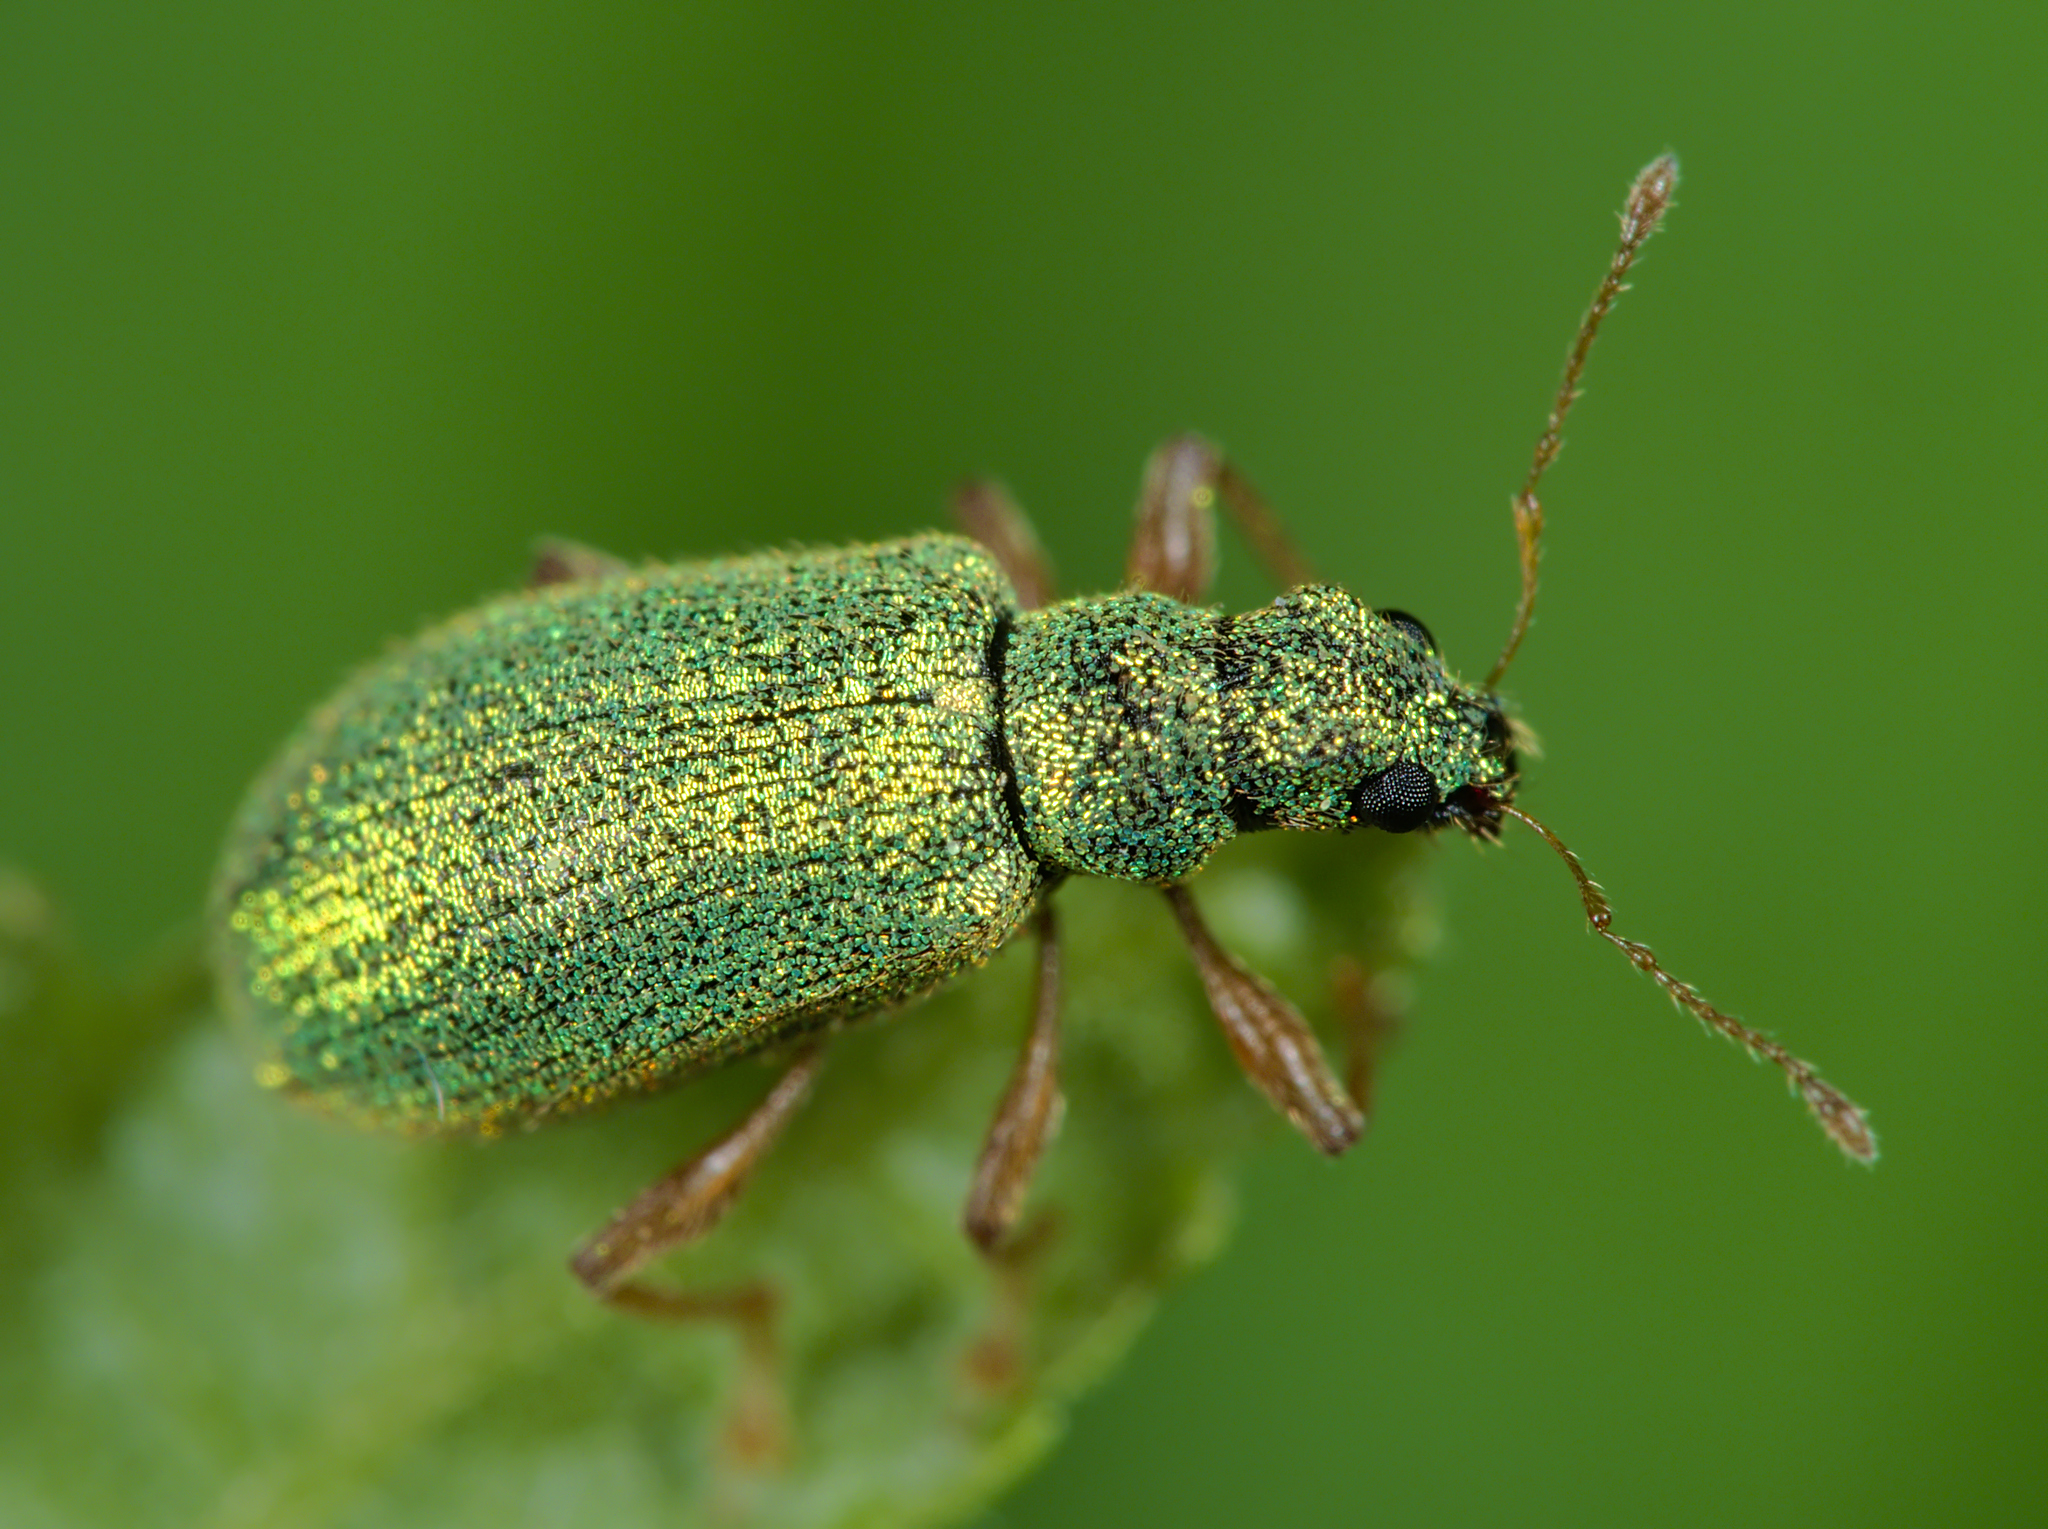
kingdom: Animalia
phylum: Arthropoda
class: Insecta
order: Coleoptera
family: Curculionidae
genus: Polydrusus
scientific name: Polydrusus pterygomalis
